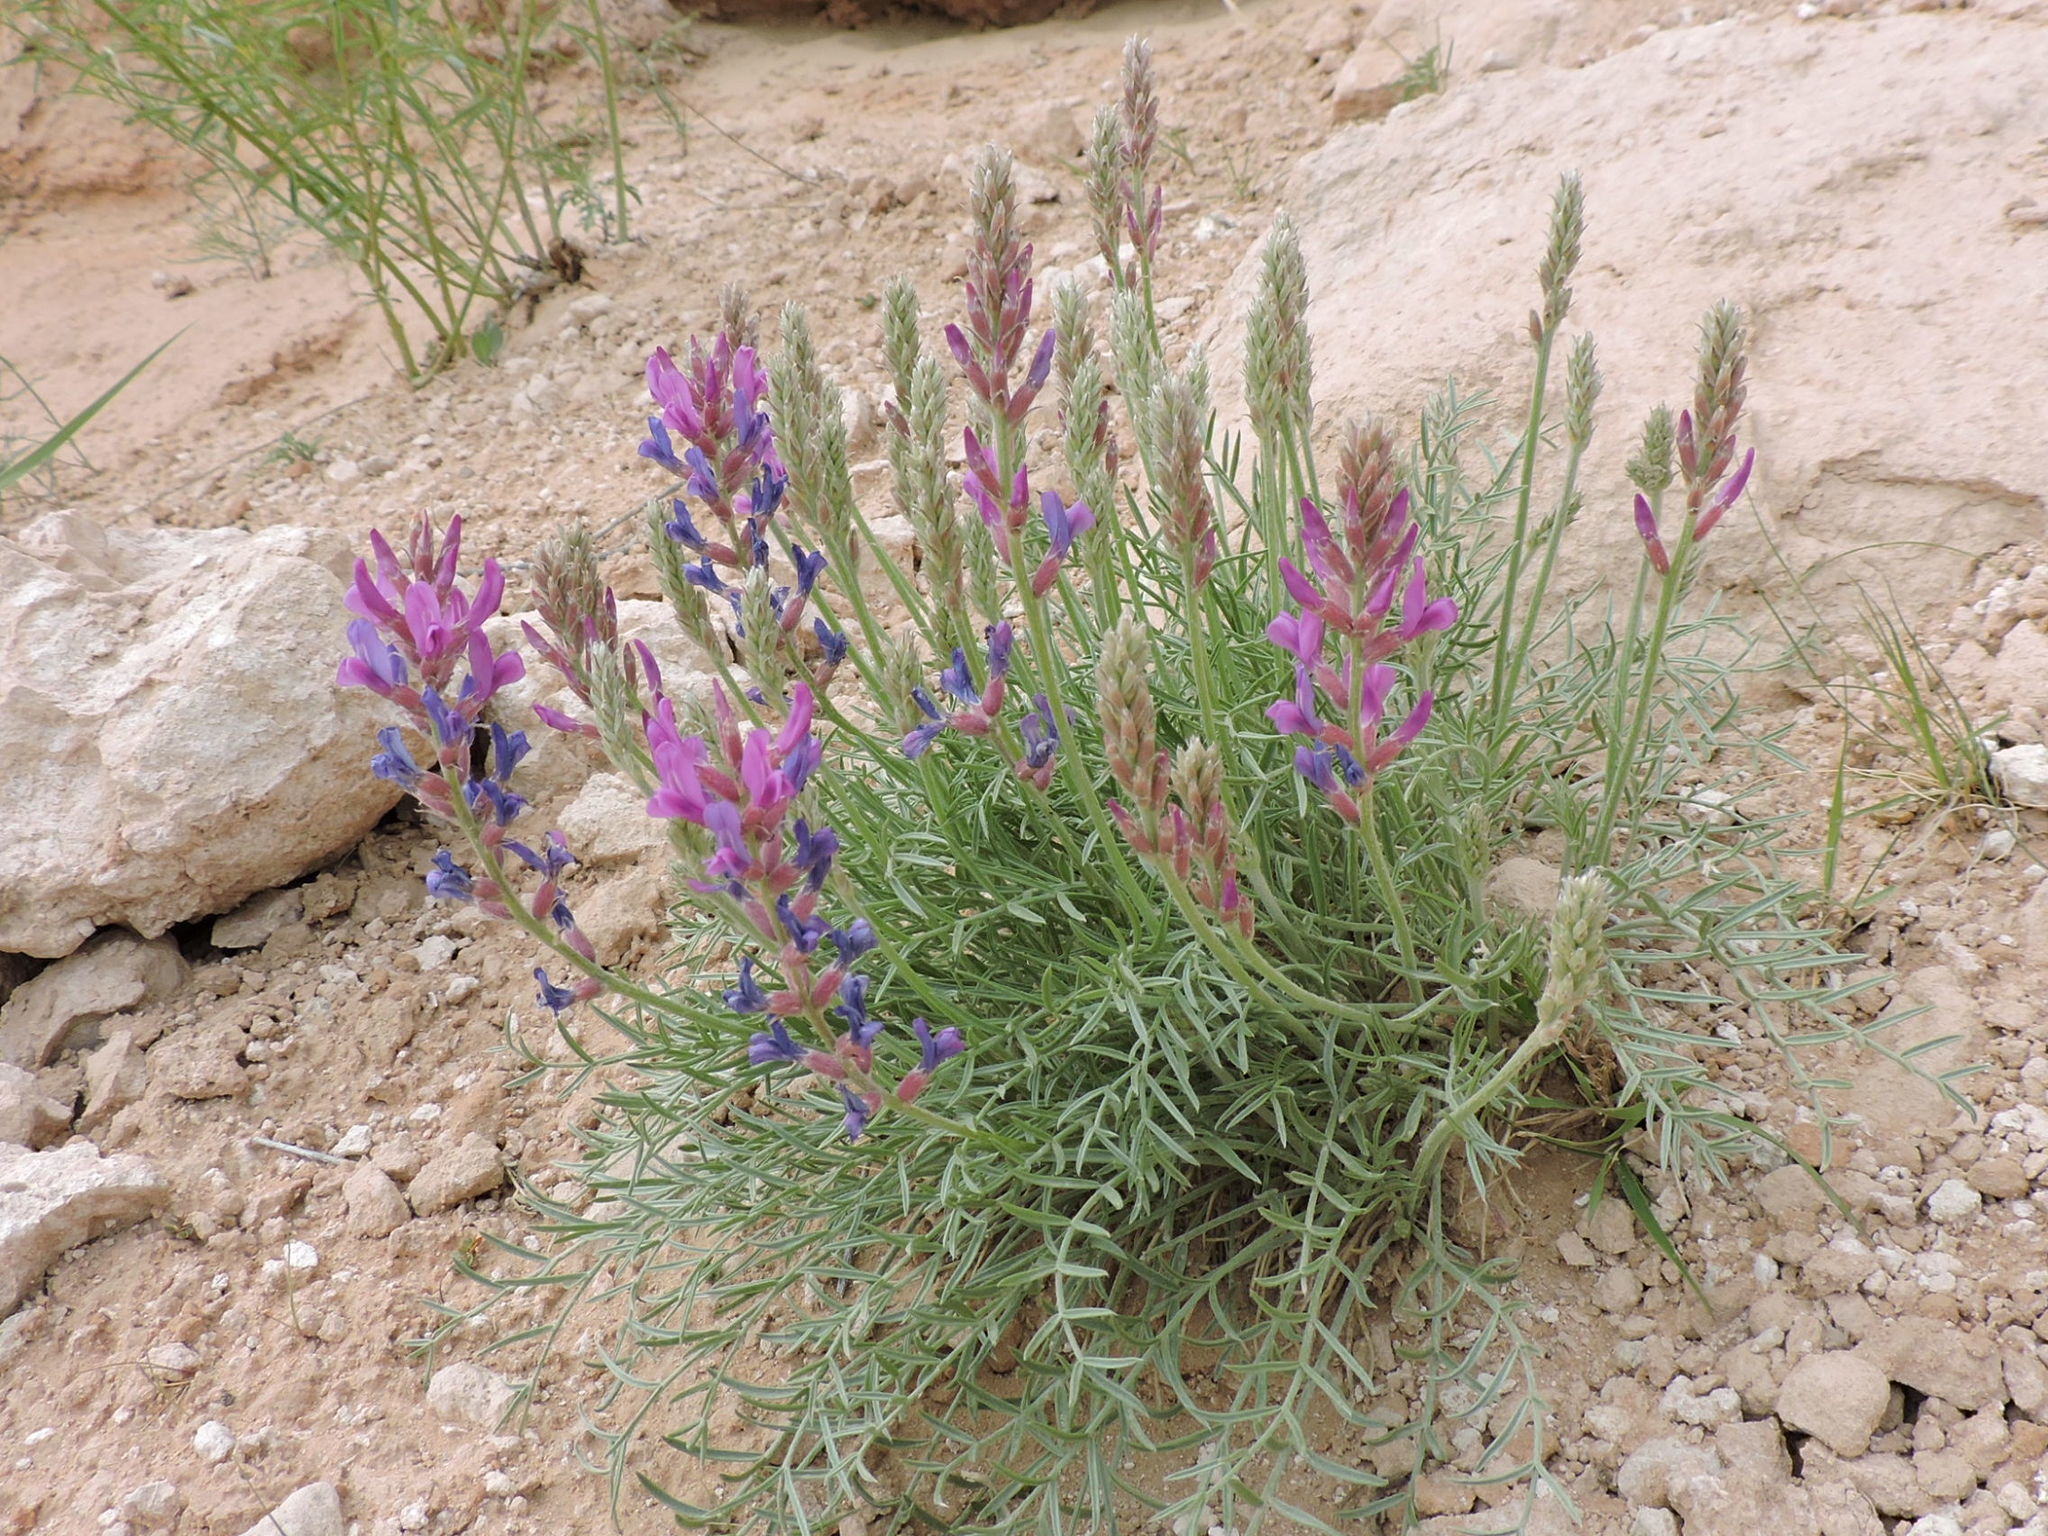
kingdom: Plantae
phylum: Tracheophyta
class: Magnoliopsida
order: Fabales
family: Fabaceae
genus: Oxytropis
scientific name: Oxytropis lambertii
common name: Purple locoweed
